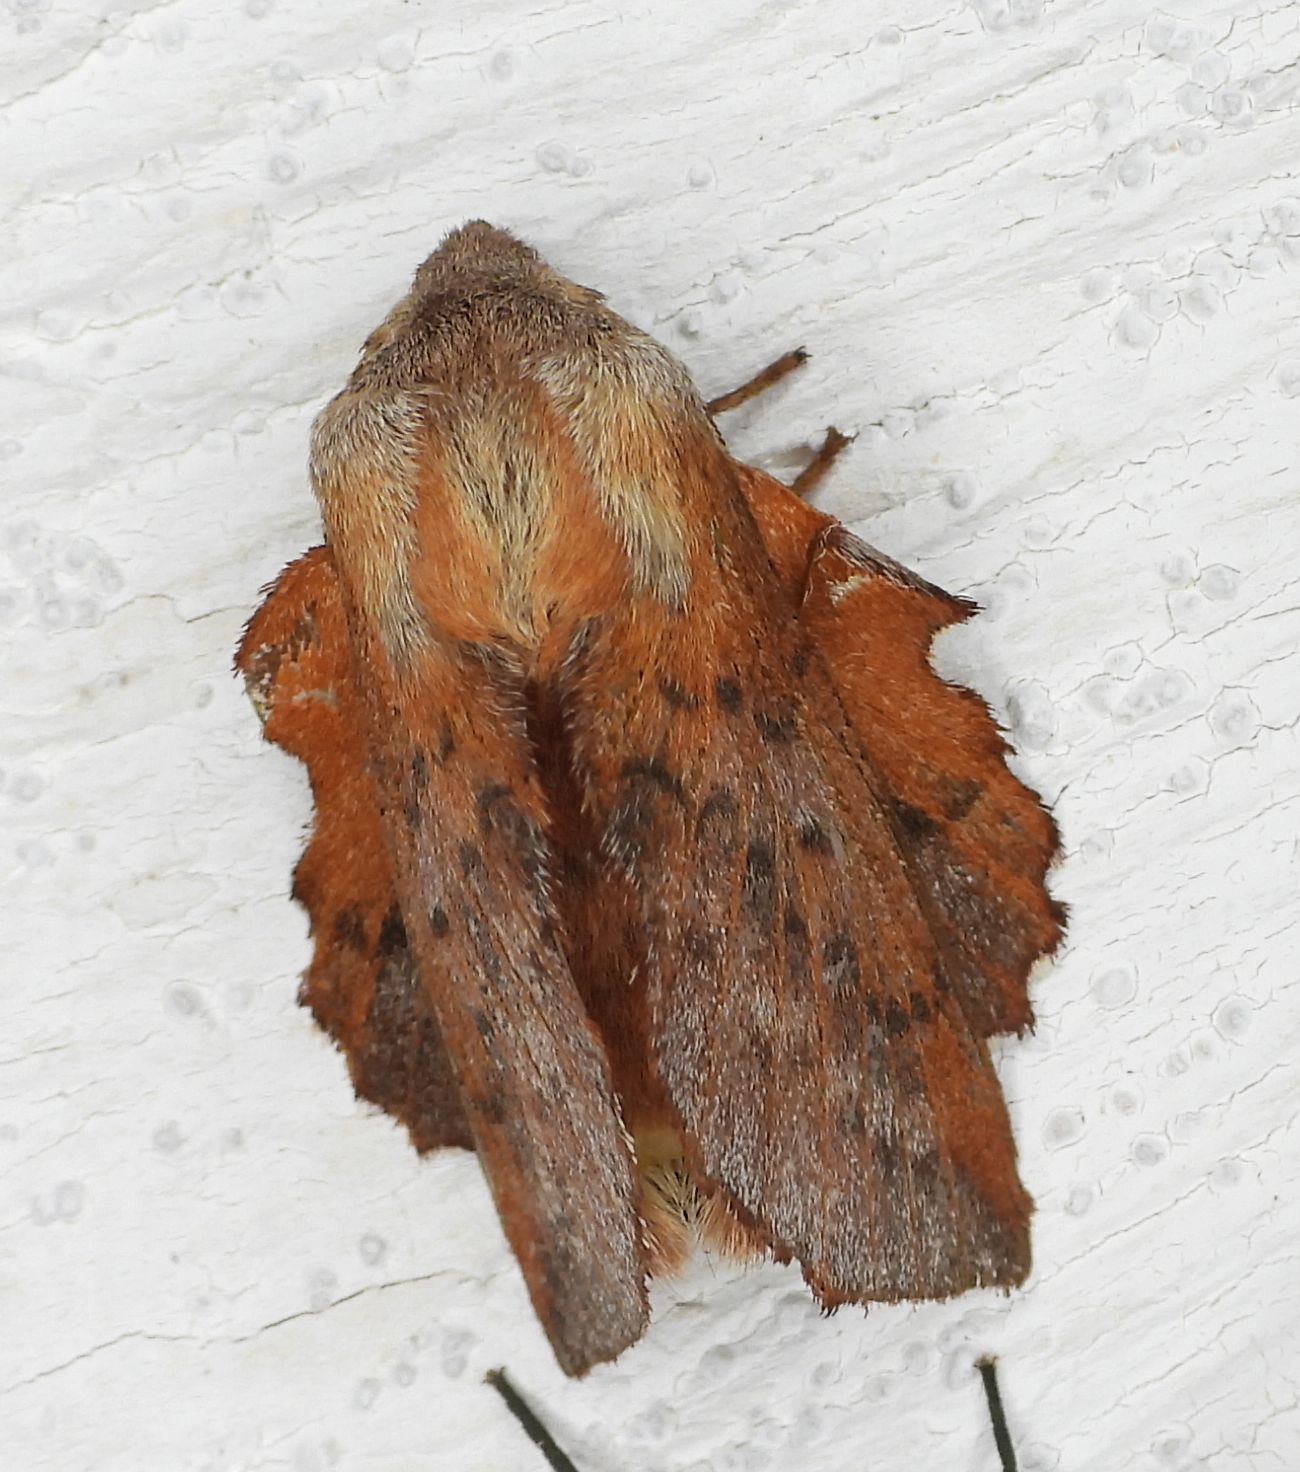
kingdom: Animalia
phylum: Arthropoda
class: Insecta
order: Lepidoptera
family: Lasiocampidae
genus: Phyllodesma
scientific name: Phyllodesma americana
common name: American lappet moth
